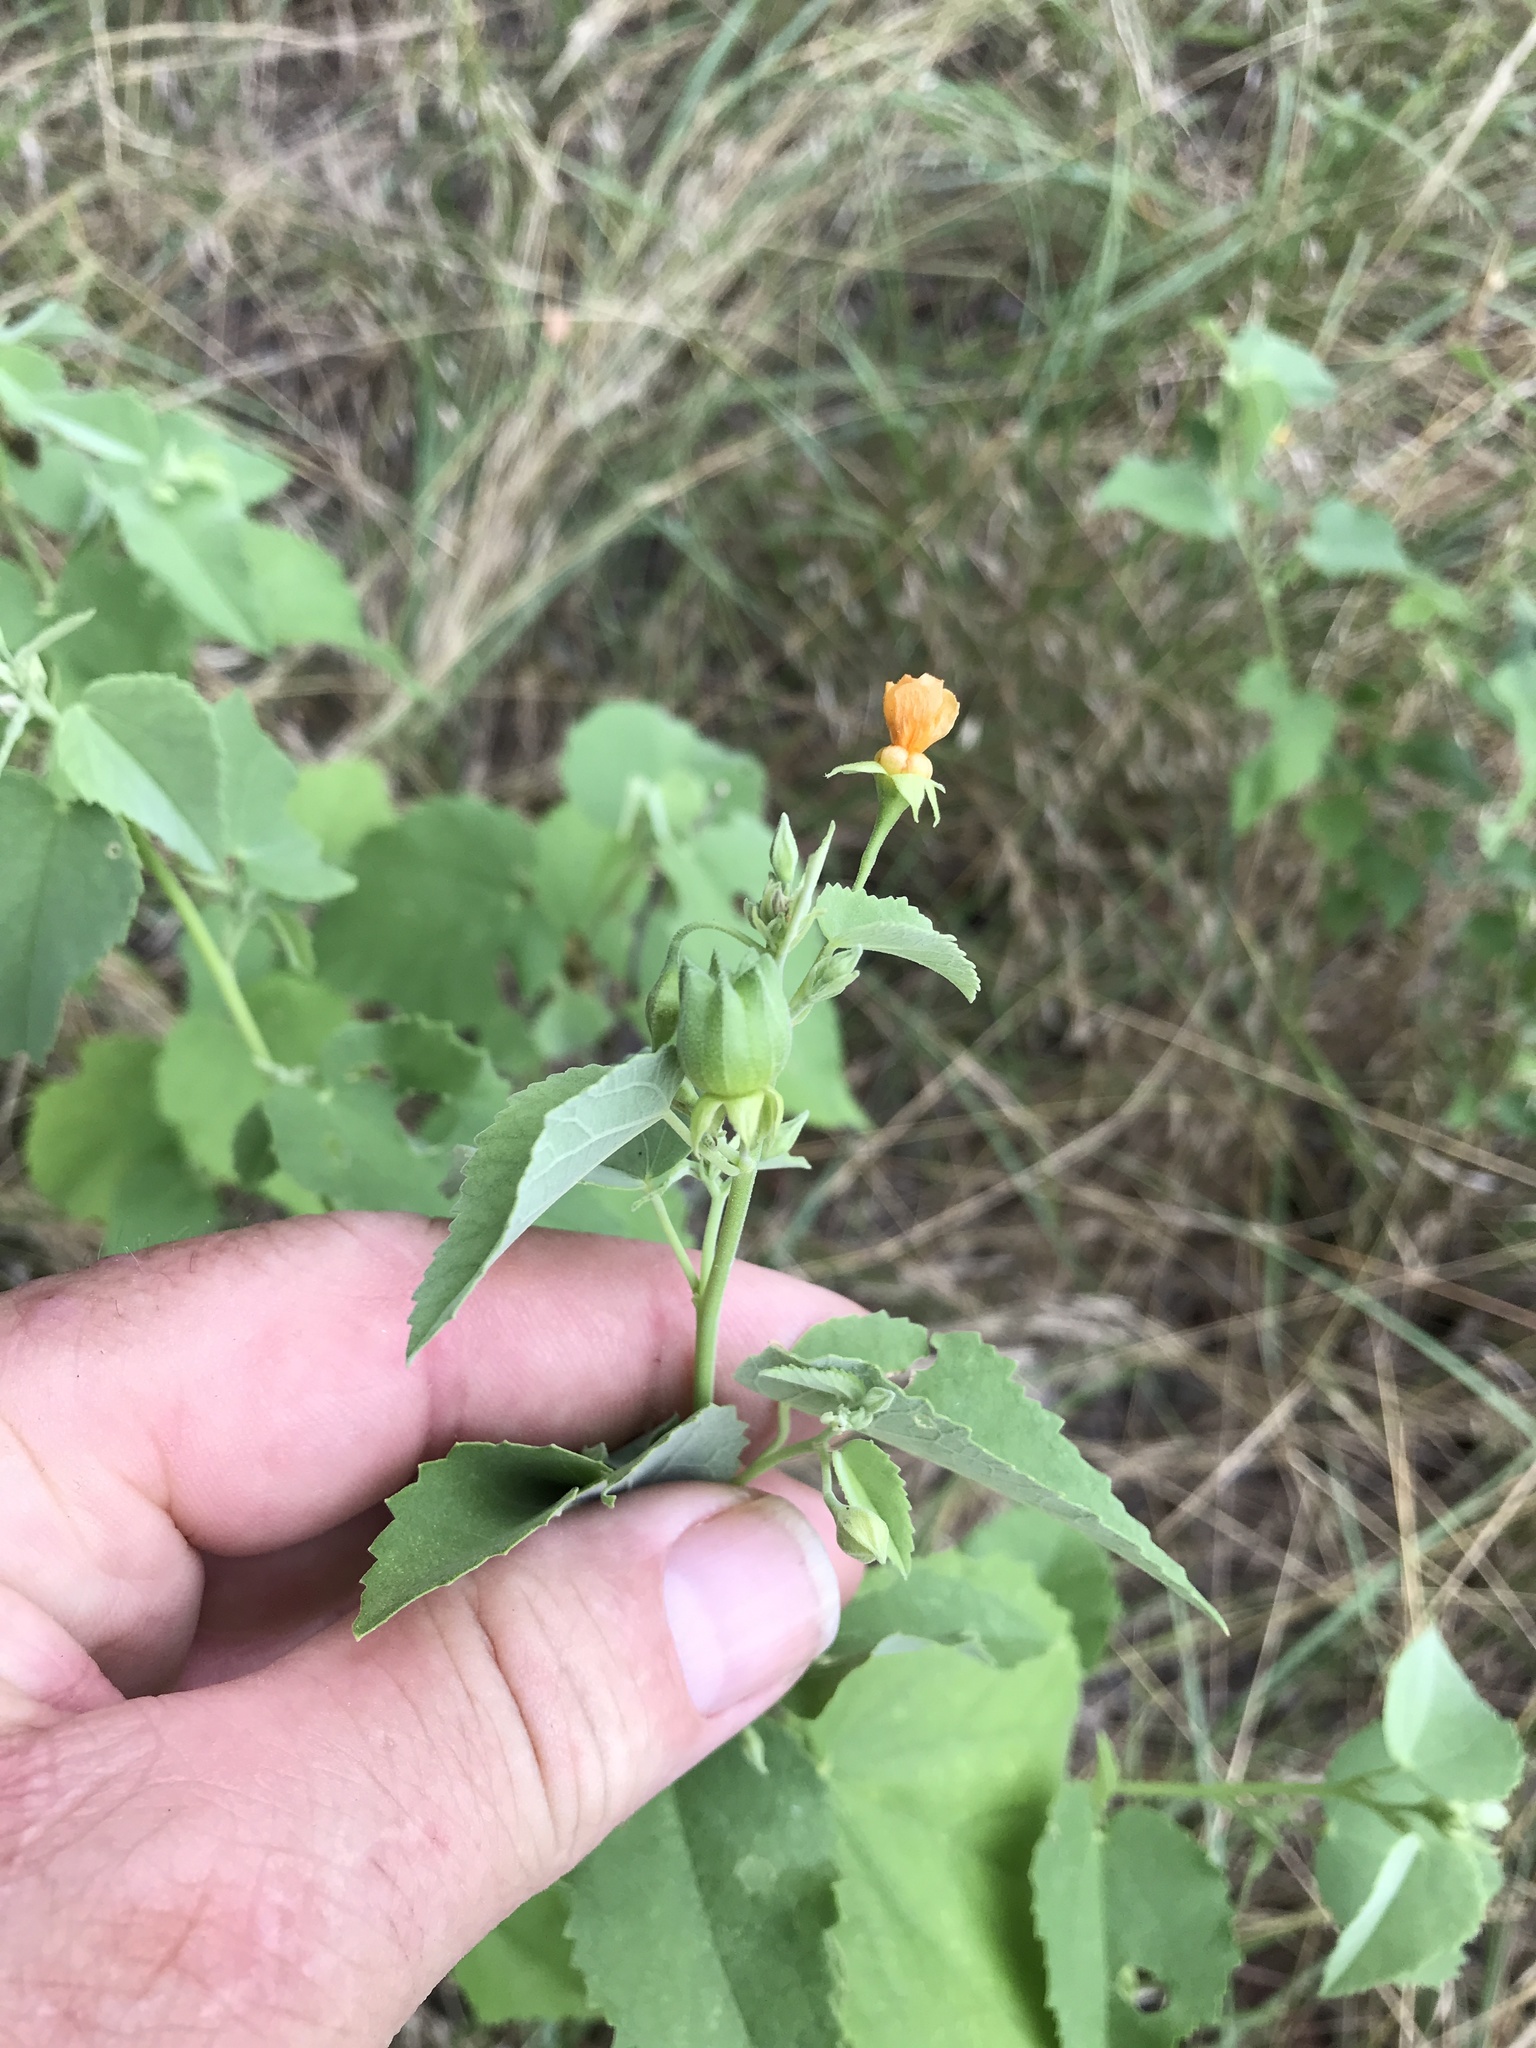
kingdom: Plantae
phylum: Tracheophyta
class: Magnoliopsida
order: Malvales
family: Malvaceae
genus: Abutilon
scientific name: Abutilon fruticosum
